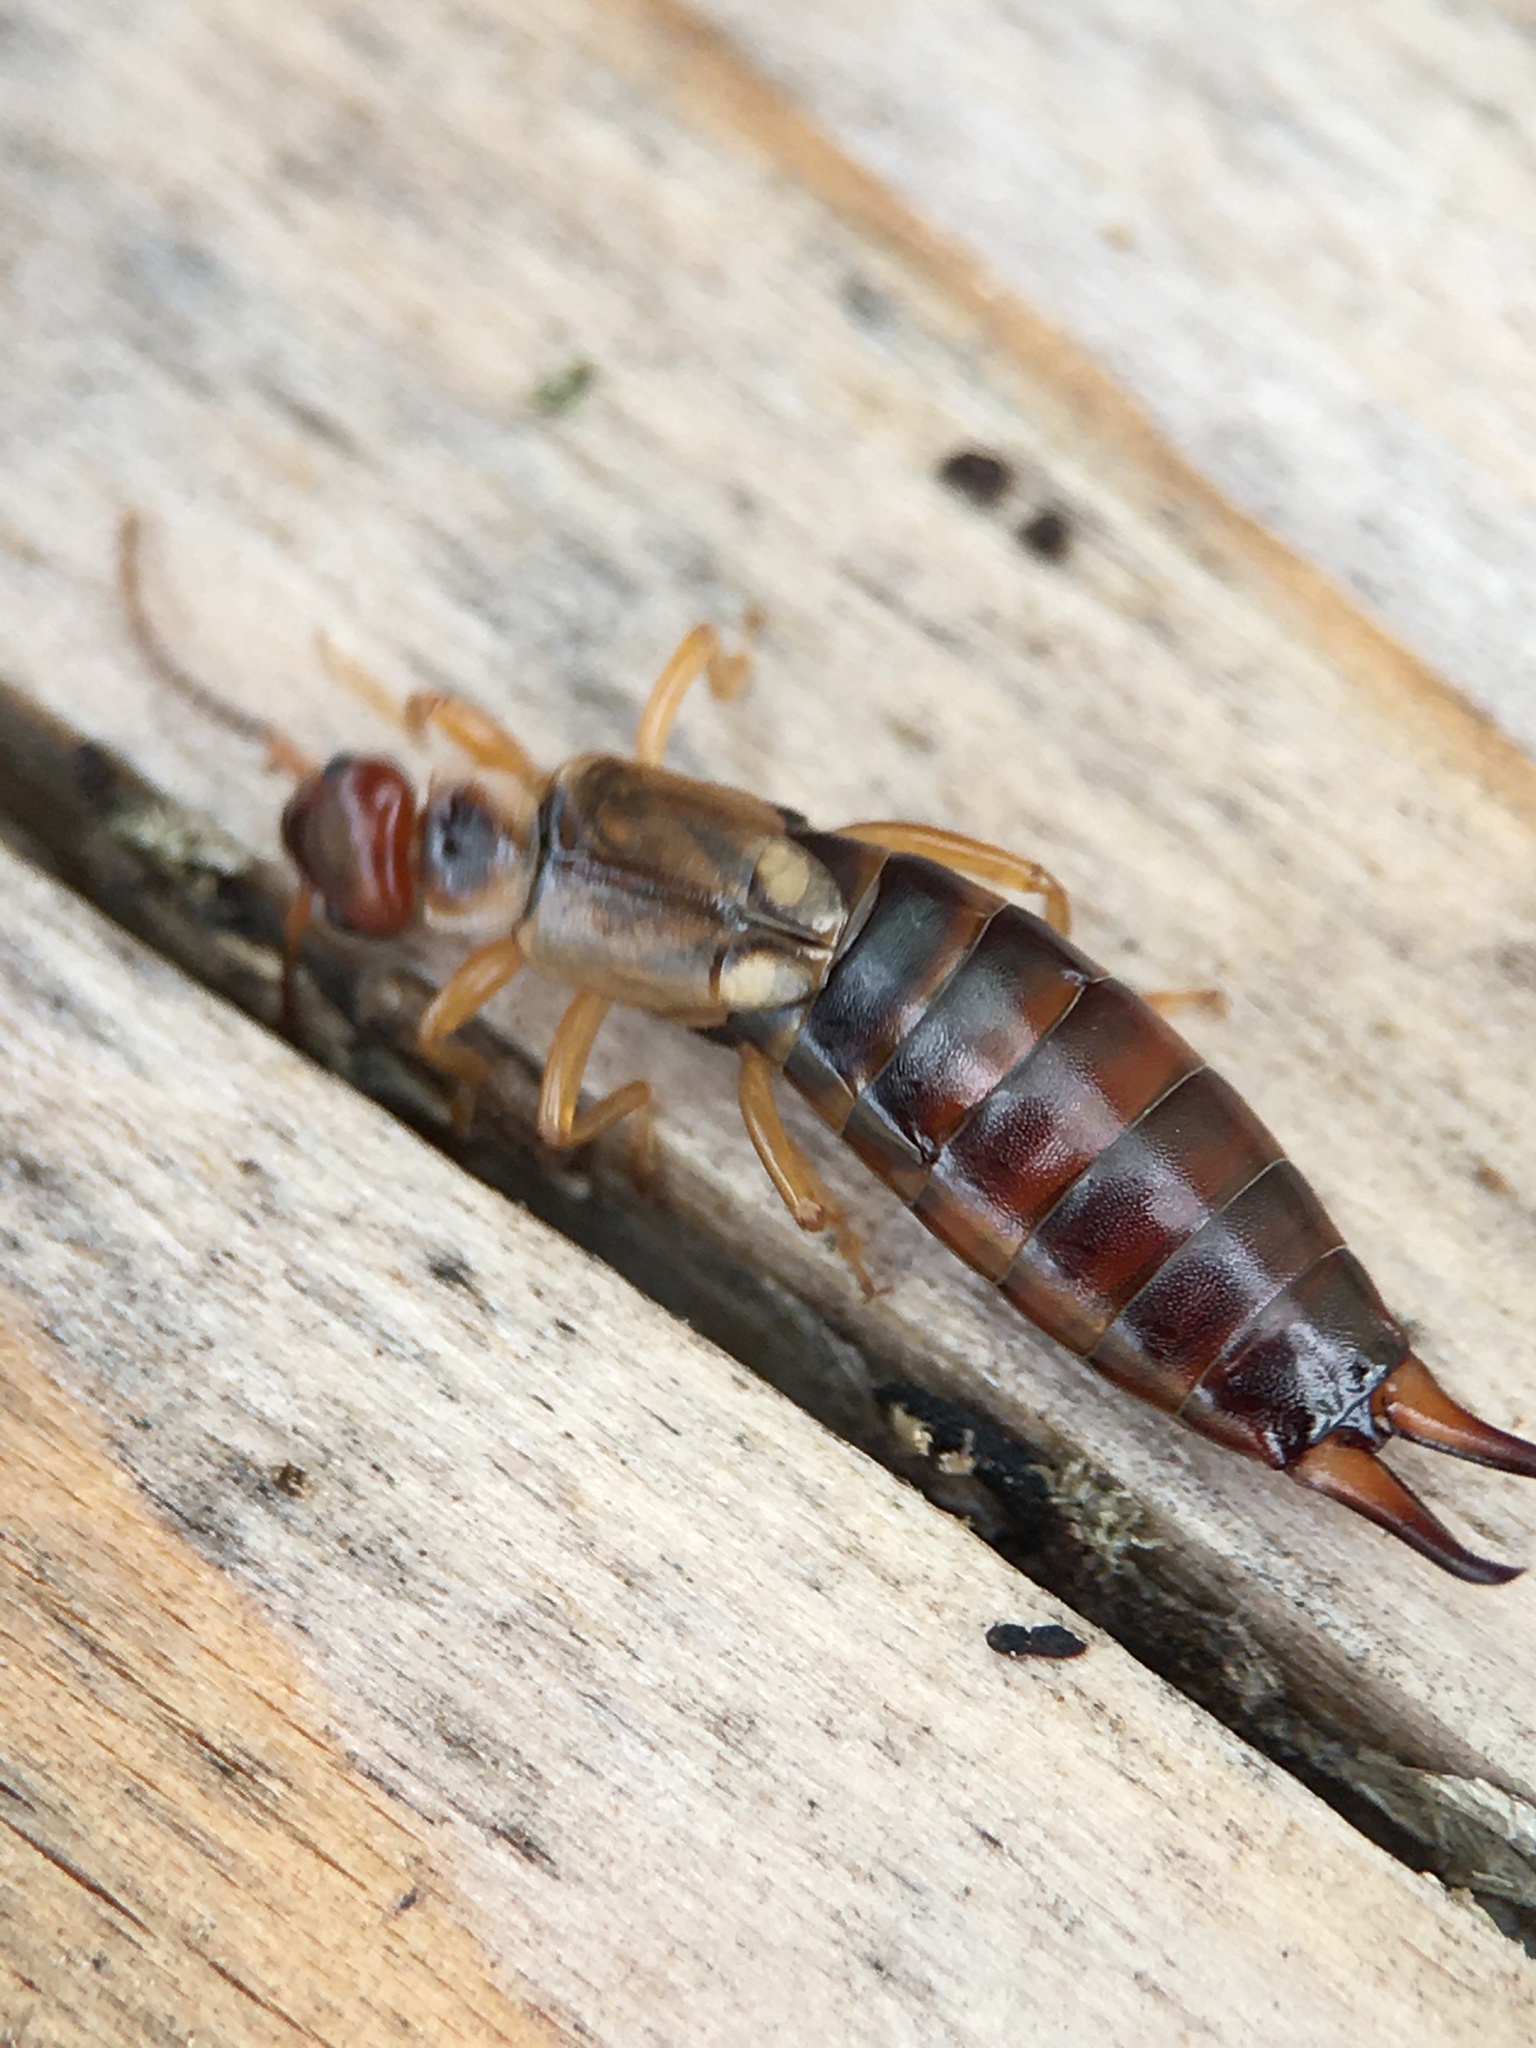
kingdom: Animalia
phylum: Arthropoda
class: Insecta
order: Dermaptera
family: Forficulidae
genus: Forficula
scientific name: Forficula dentata
